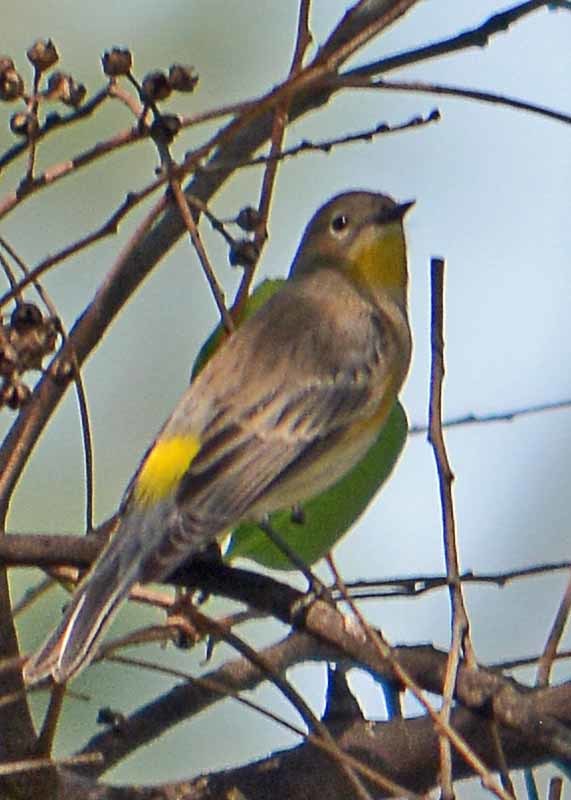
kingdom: Animalia
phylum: Chordata
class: Aves
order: Passeriformes
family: Parulidae
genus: Setophaga
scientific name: Setophaga coronata
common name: Myrtle warbler
